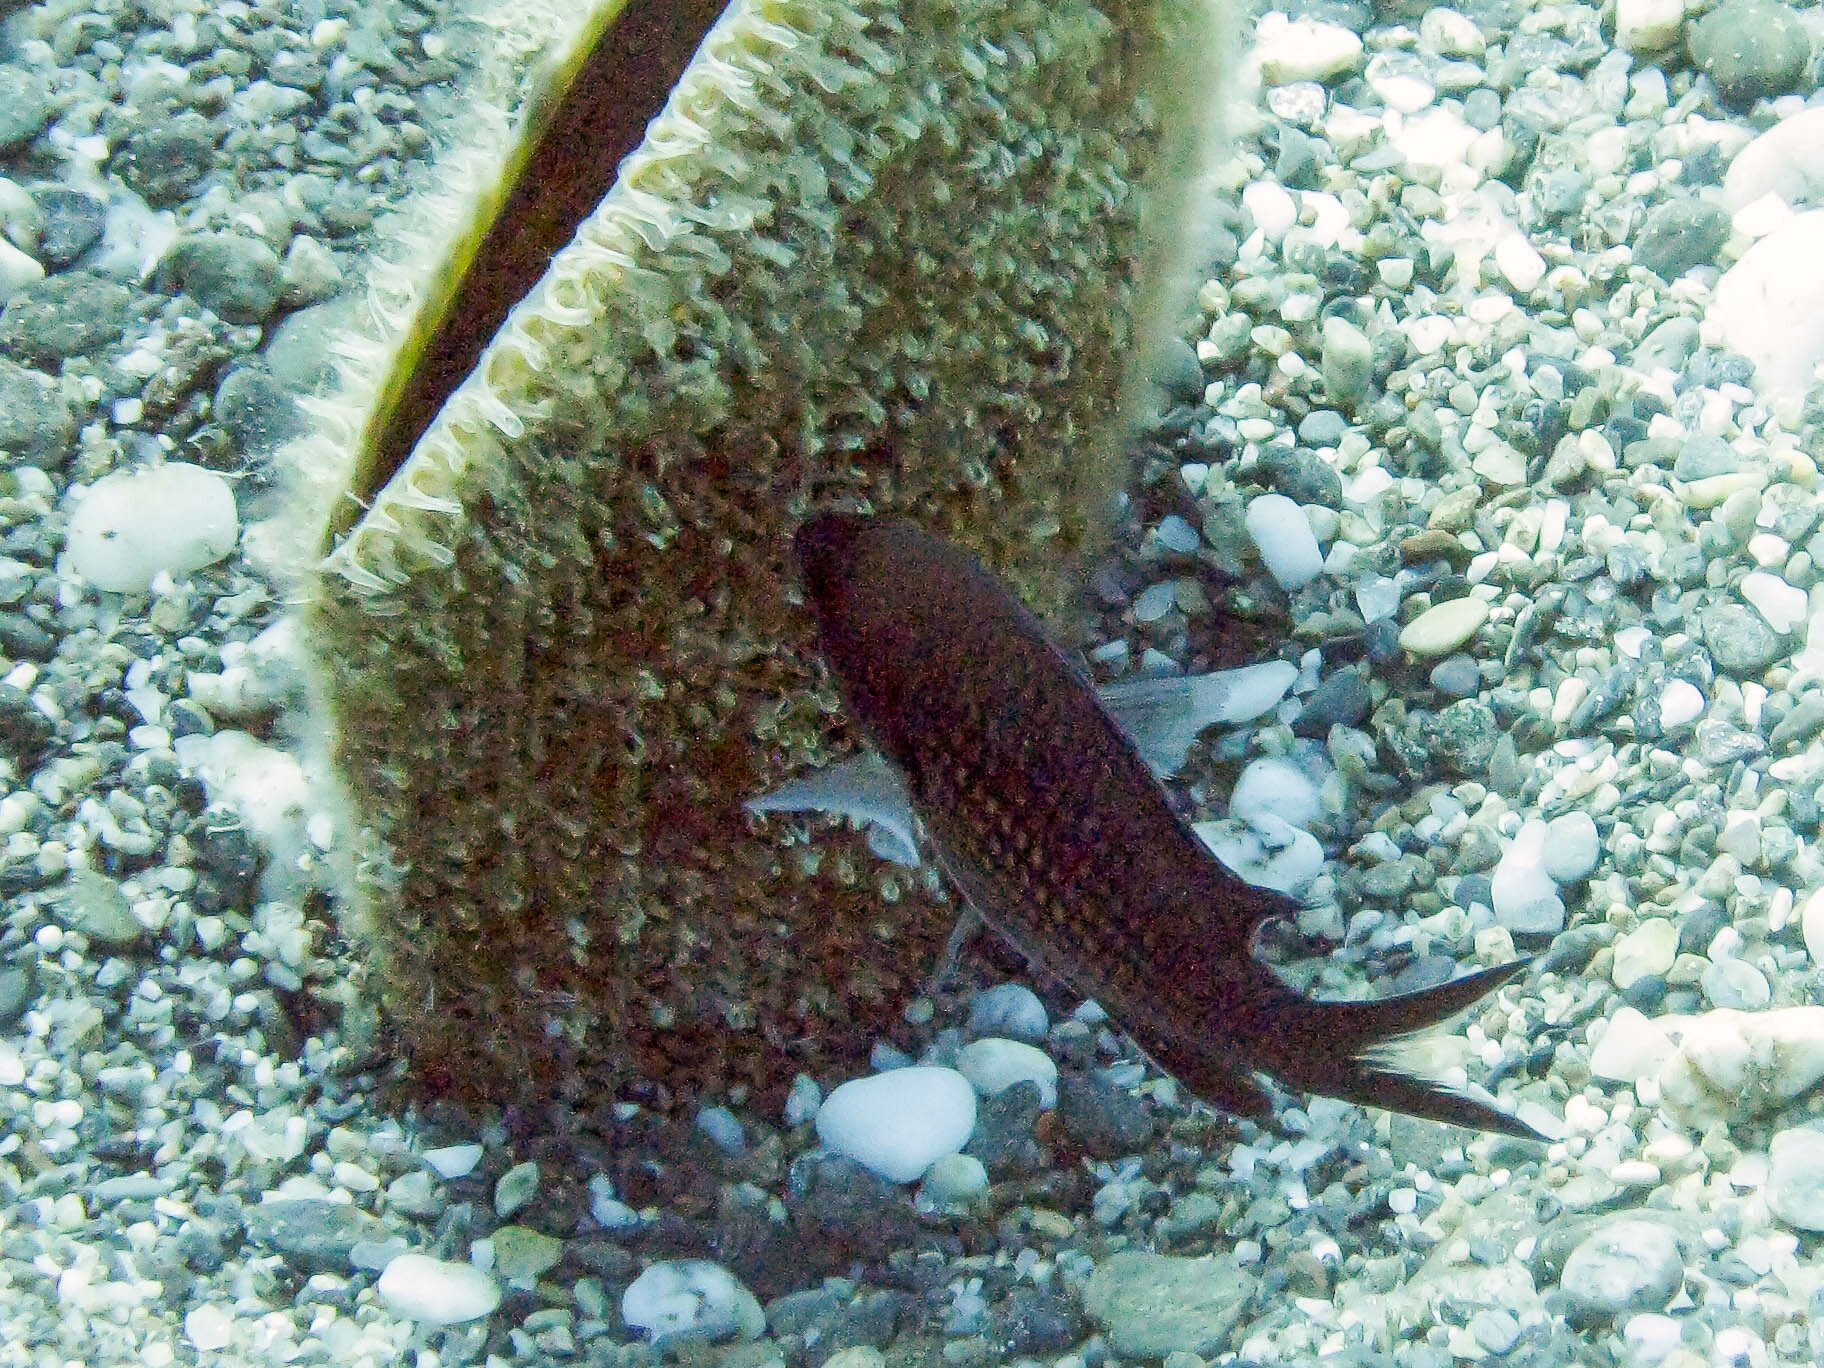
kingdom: Animalia
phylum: Chordata
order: Perciformes
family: Pomacentridae
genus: Chromis
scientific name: Chromis chromis
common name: Damselfish
